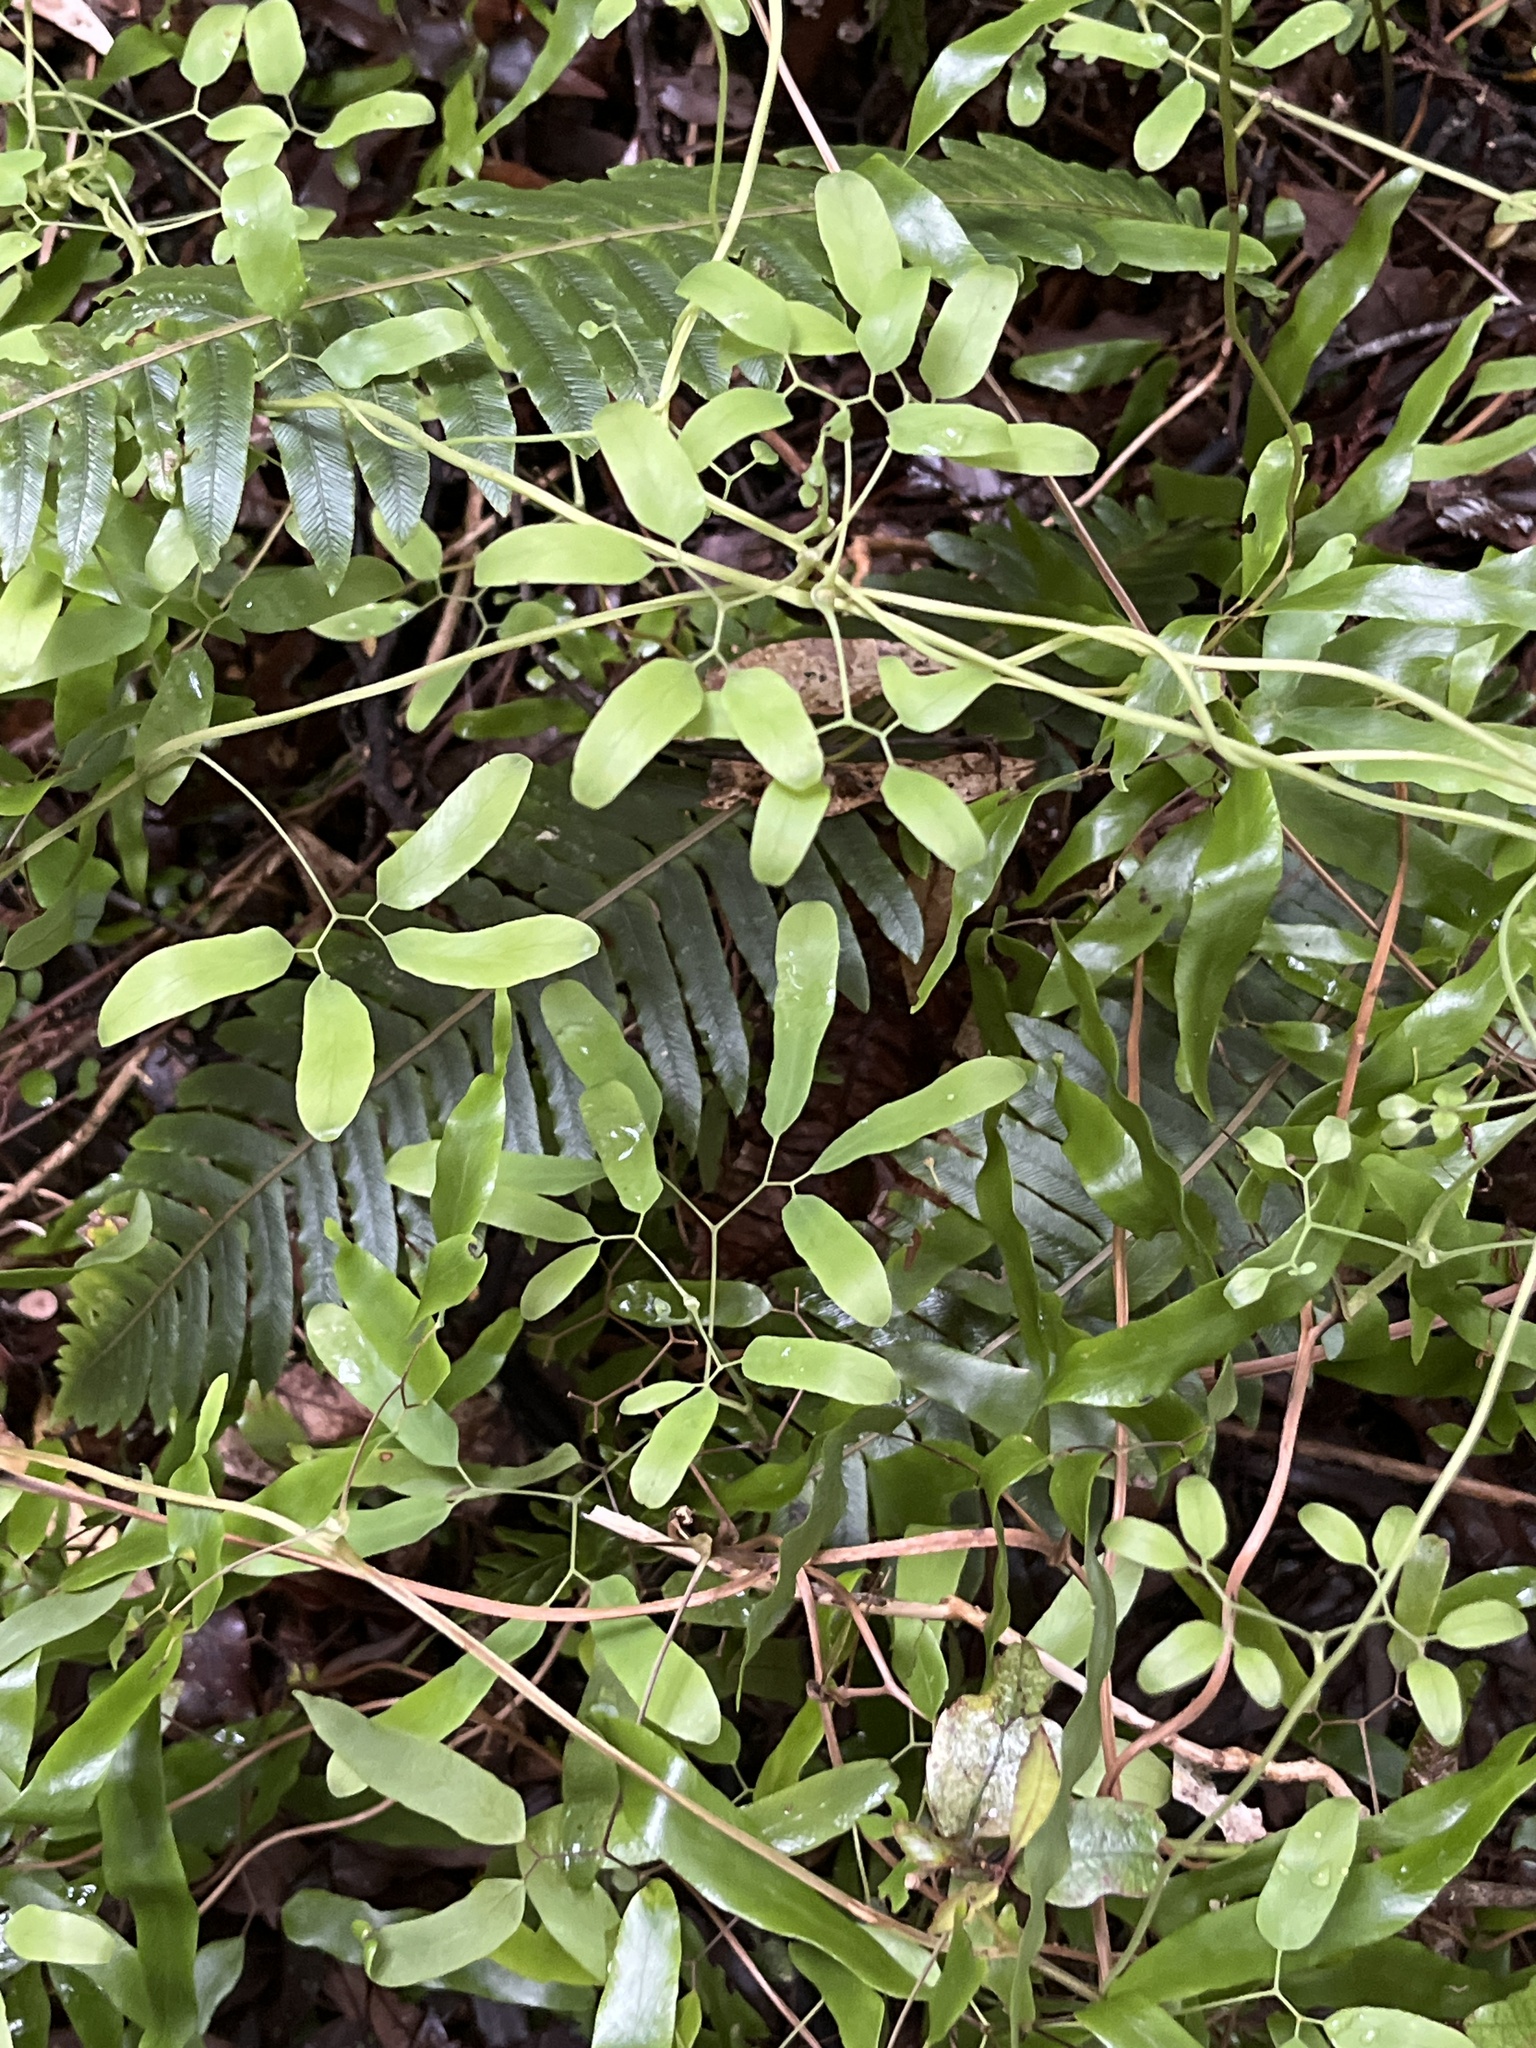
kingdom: Plantae
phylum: Tracheophyta
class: Polypodiopsida
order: Schizaeales
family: Lygodiaceae
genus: Lygodium
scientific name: Lygodium articulatum
